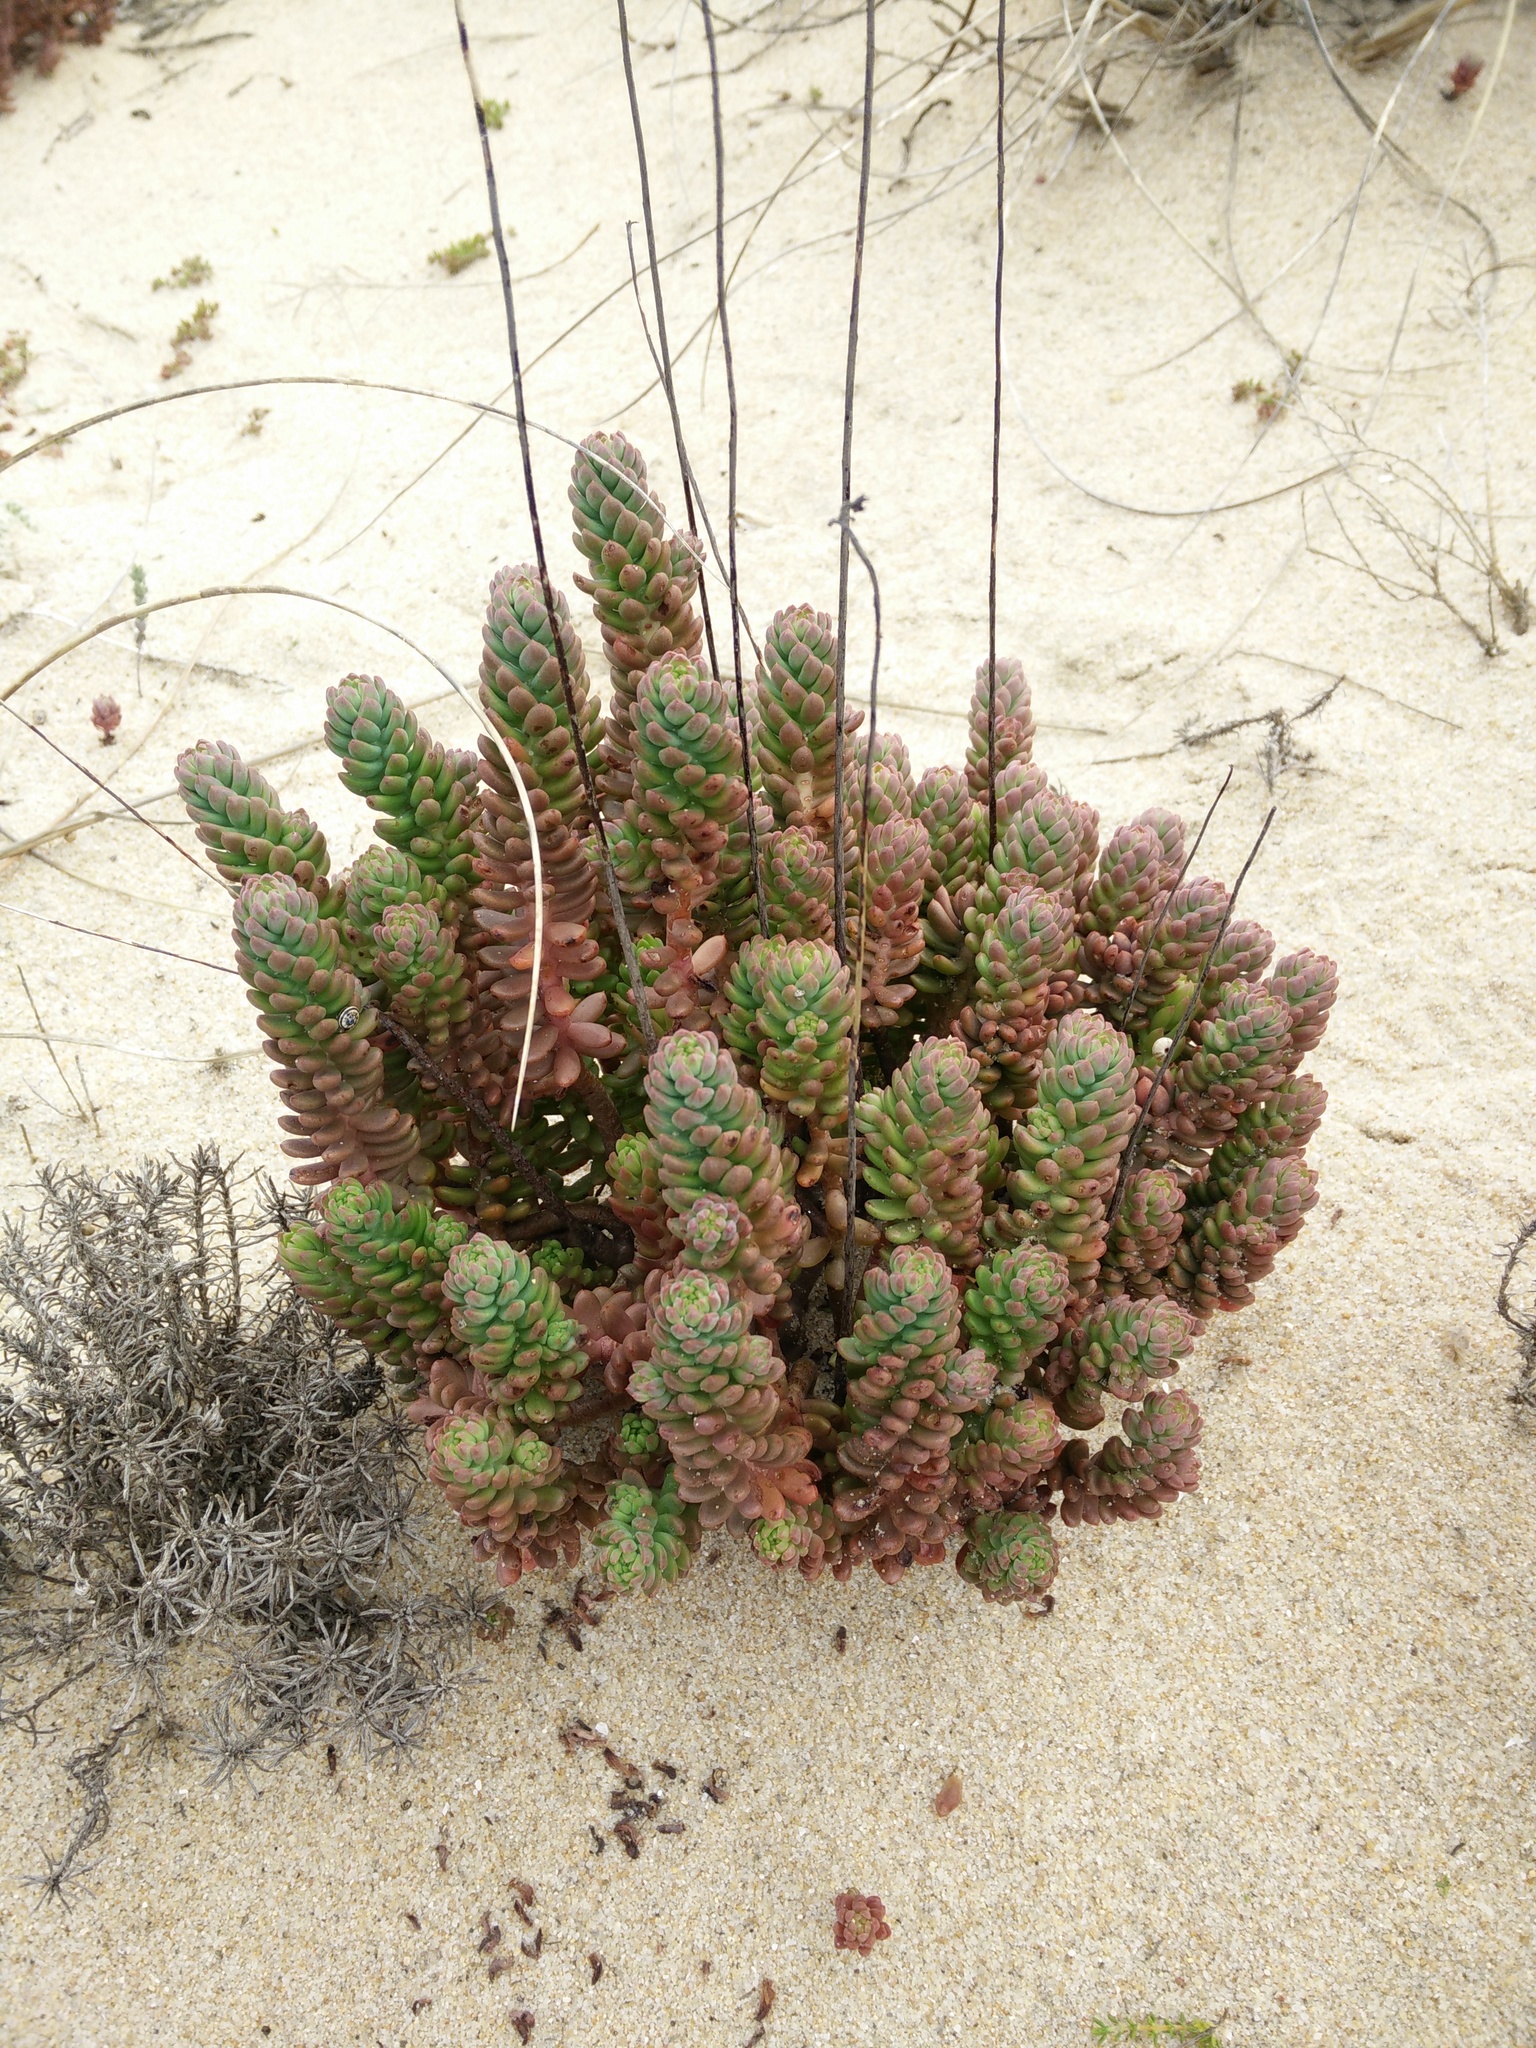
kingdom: Plantae
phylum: Tracheophyta
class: Magnoliopsida
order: Saxifragales
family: Crassulaceae
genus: Petrosedum
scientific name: Petrosedum sediforme
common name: Pale stonecrop
